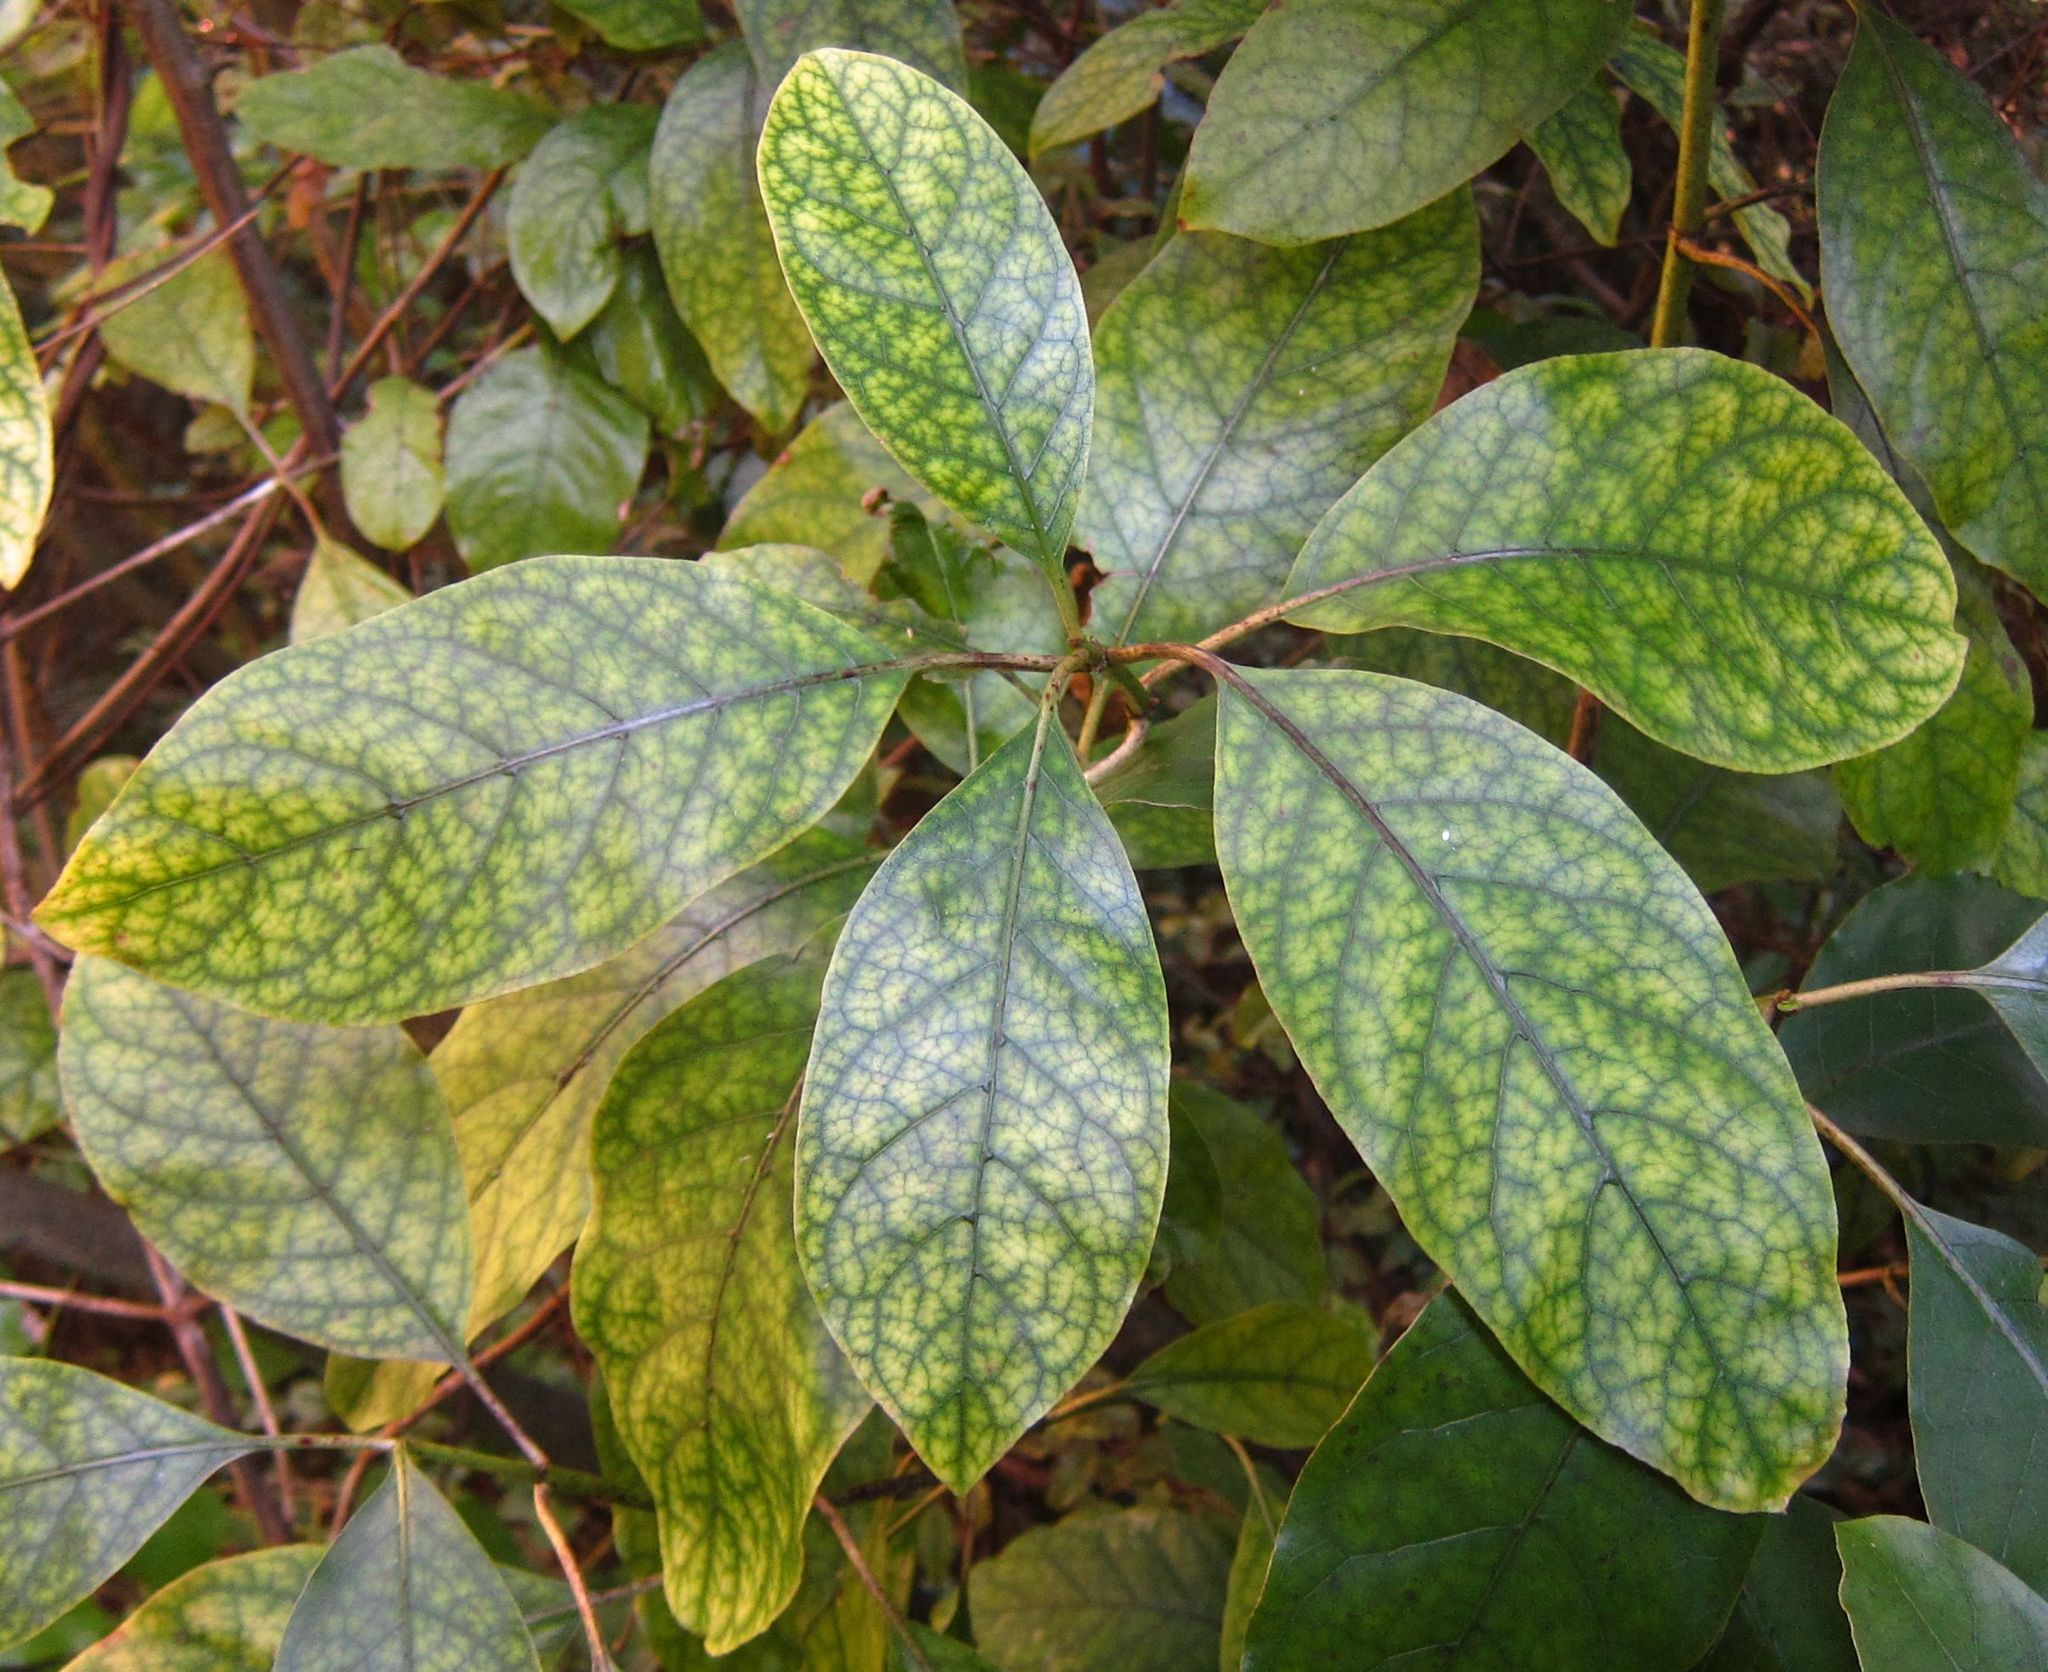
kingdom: Plantae
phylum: Tracheophyta
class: Magnoliopsida
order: Gentianales
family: Rubiaceae
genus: Coprosma
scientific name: Coprosma autumnalis
